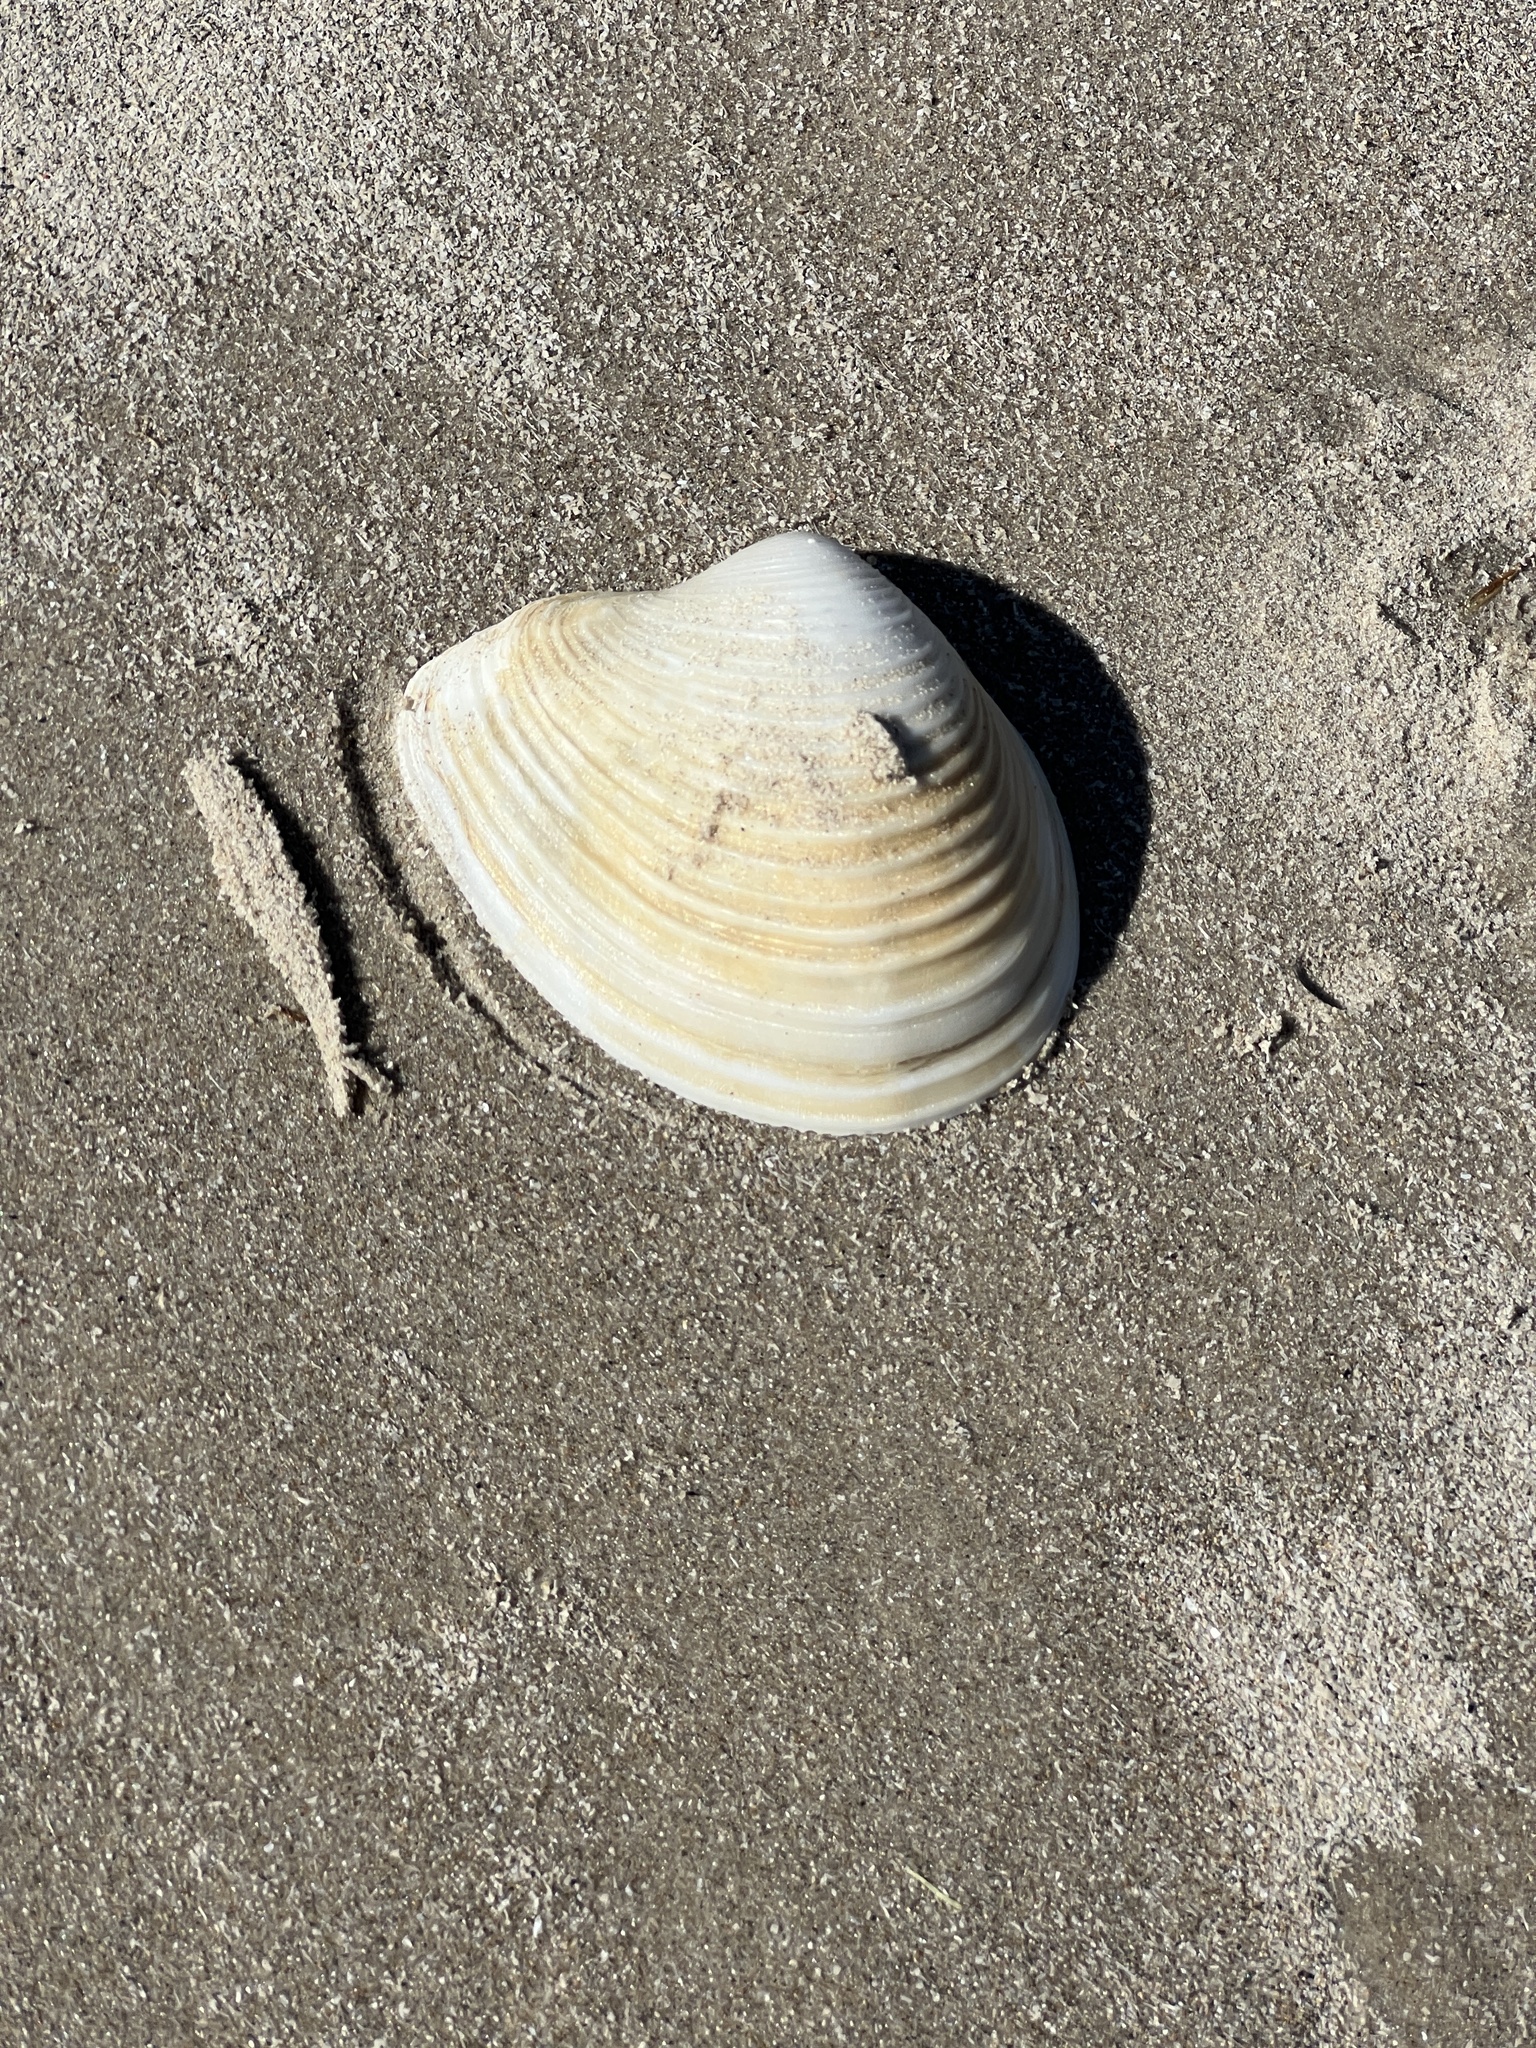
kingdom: Animalia
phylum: Mollusca
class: Bivalvia
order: Venerida
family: Anatinellidae
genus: Raeta
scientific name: Raeta plicatella
